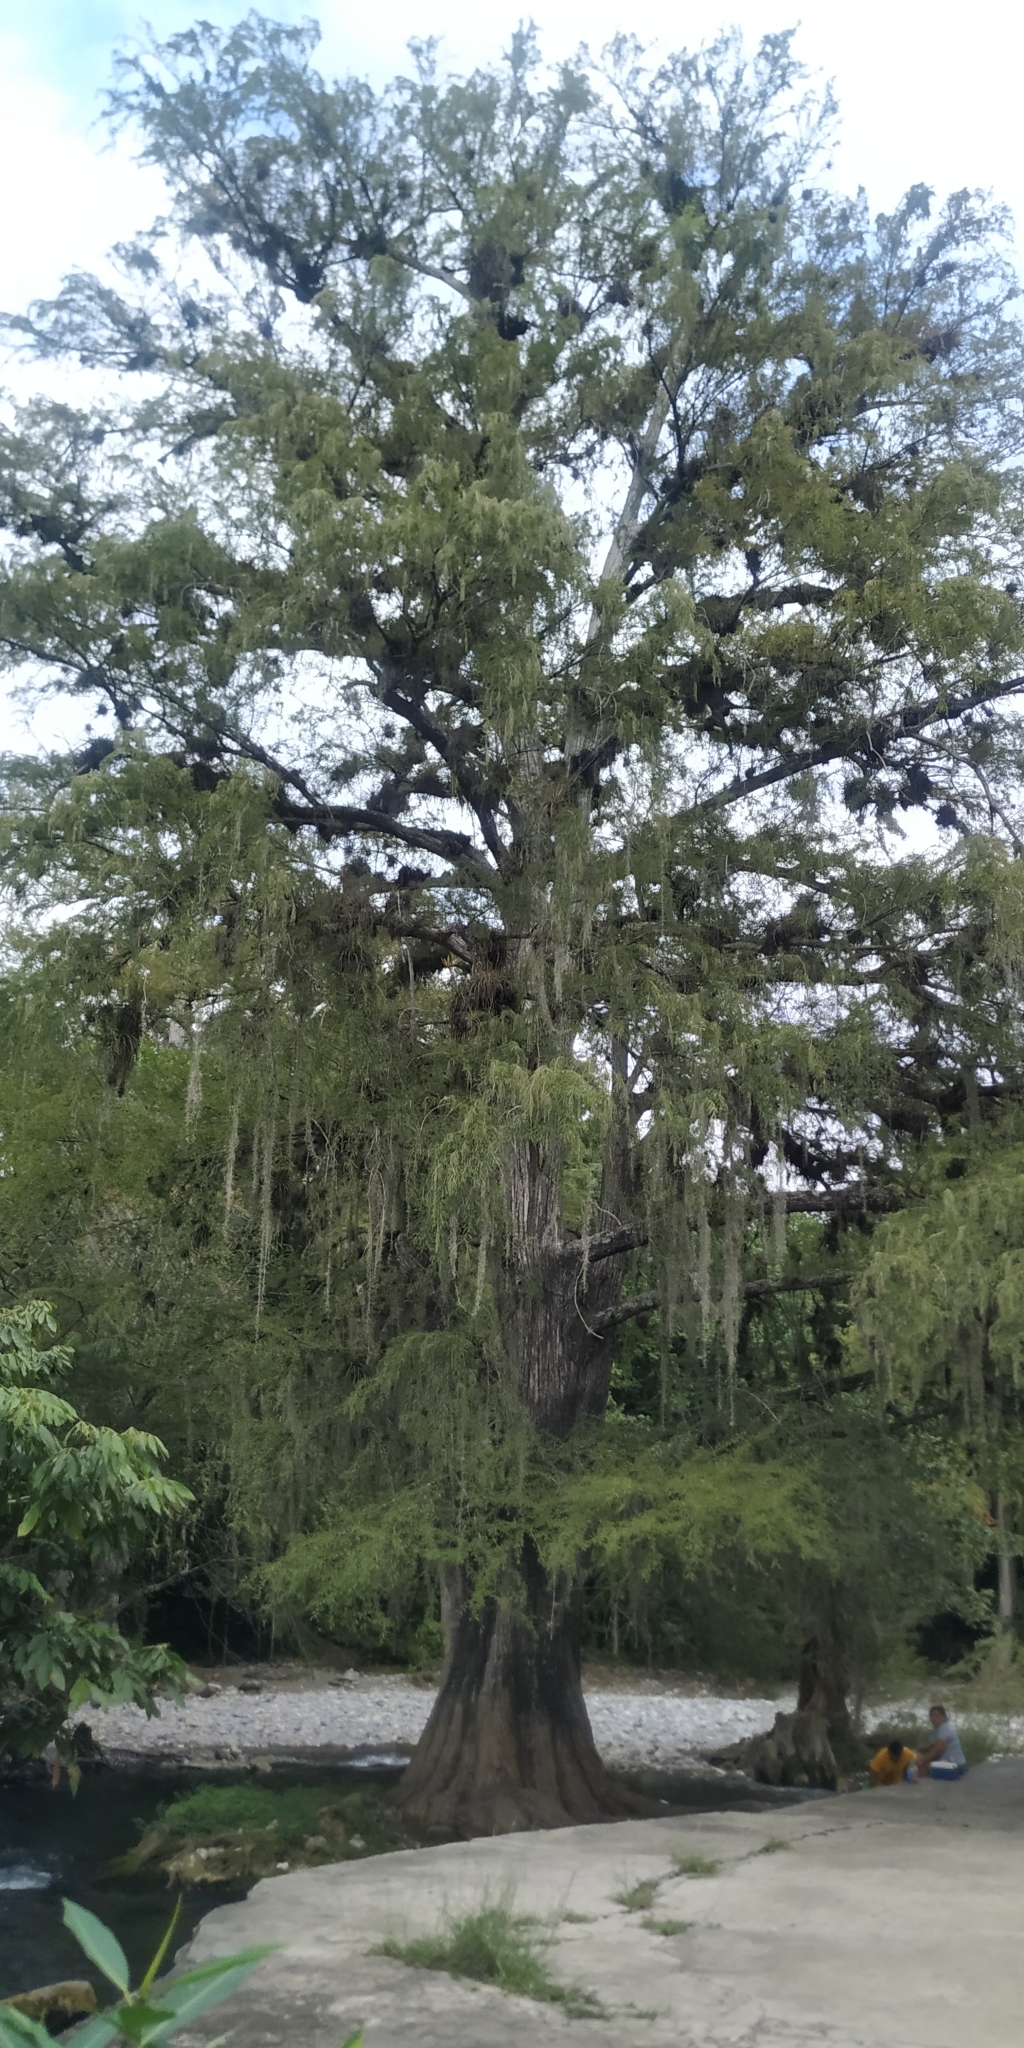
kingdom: Plantae
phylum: Tracheophyta
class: Pinopsida
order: Pinales
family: Cupressaceae
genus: Taxodium
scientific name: Taxodium mucronatum
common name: Montezume bald cypress
